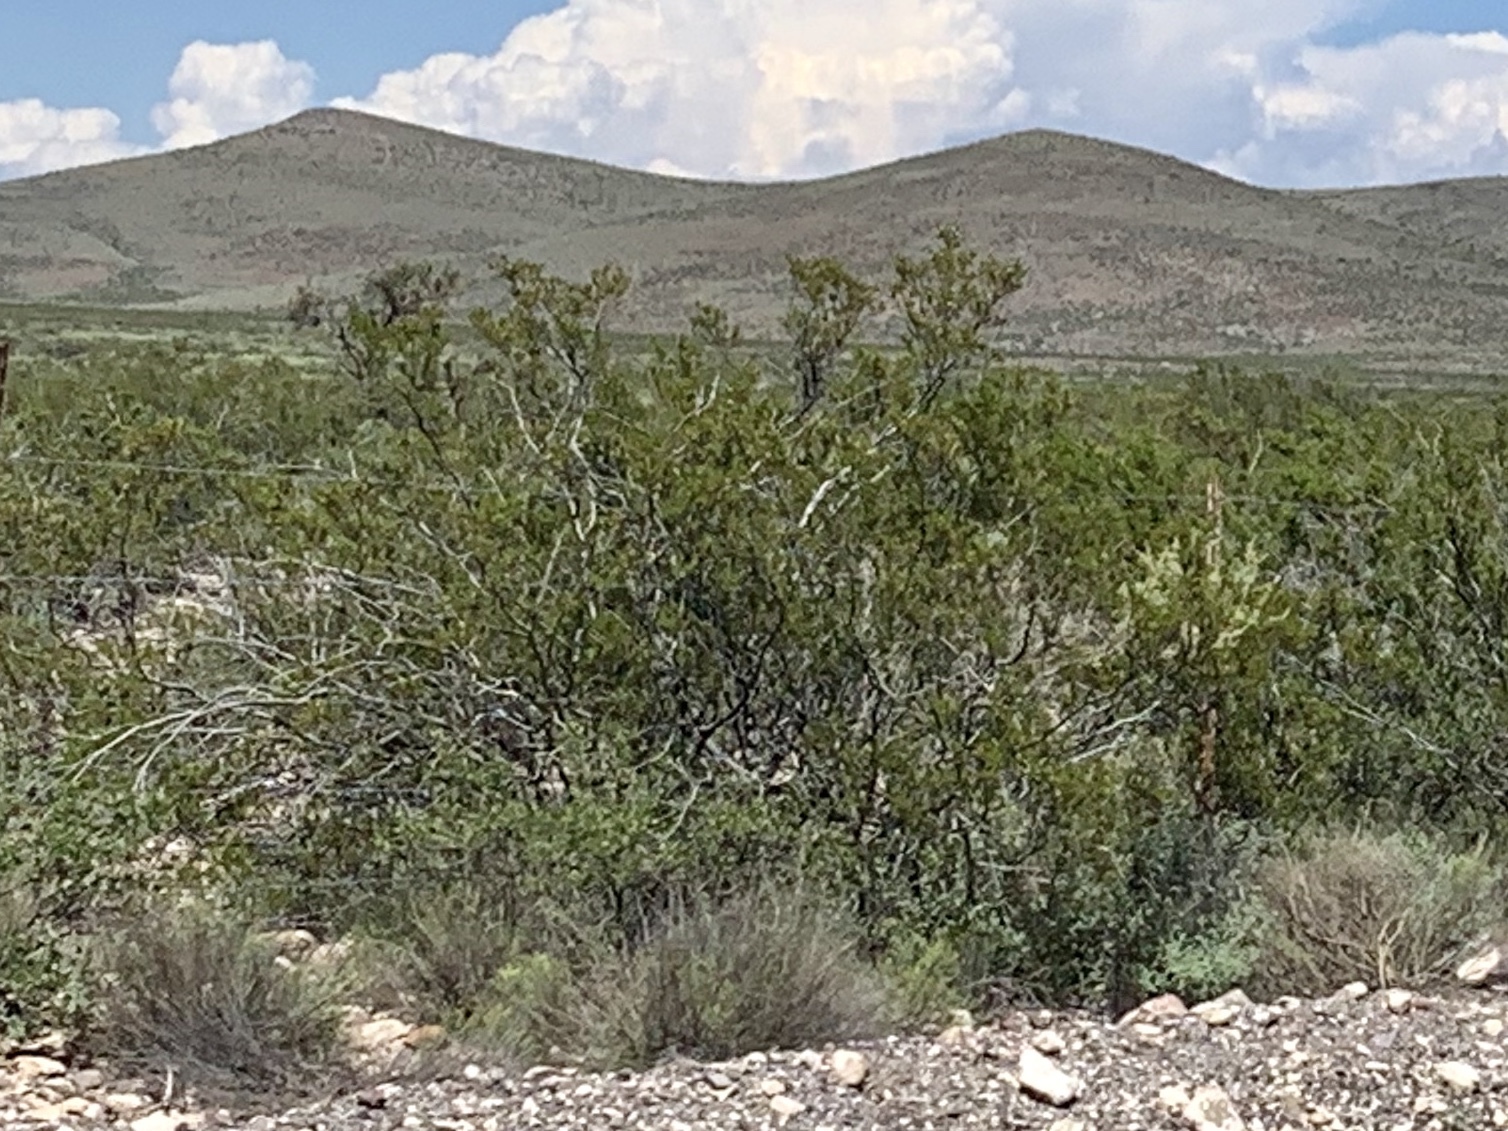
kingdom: Plantae
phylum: Tracheophyta
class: Magnoliopsida
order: Zygophyllales
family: Zygophyllaceae
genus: Larrea
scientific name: Larrea tridentata
